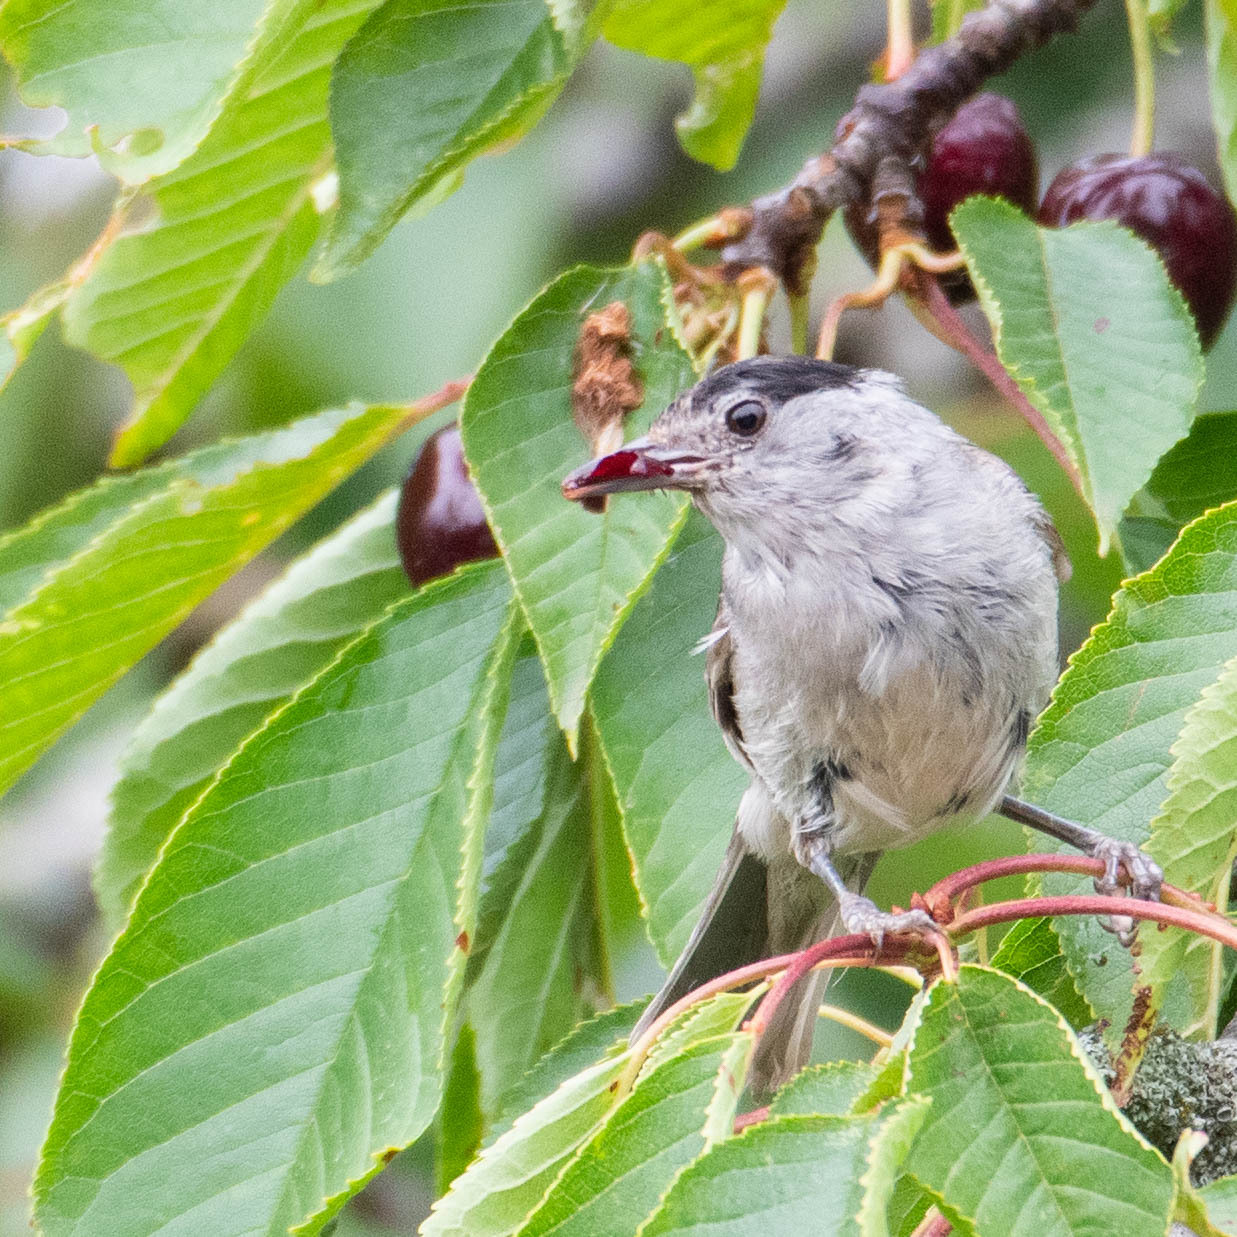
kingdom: Animalia
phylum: Chordata
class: Aves
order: Passeriformes
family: Sylviidae
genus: Sylvia
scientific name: Sylvia atricapilla
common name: Eurasian blackcap
